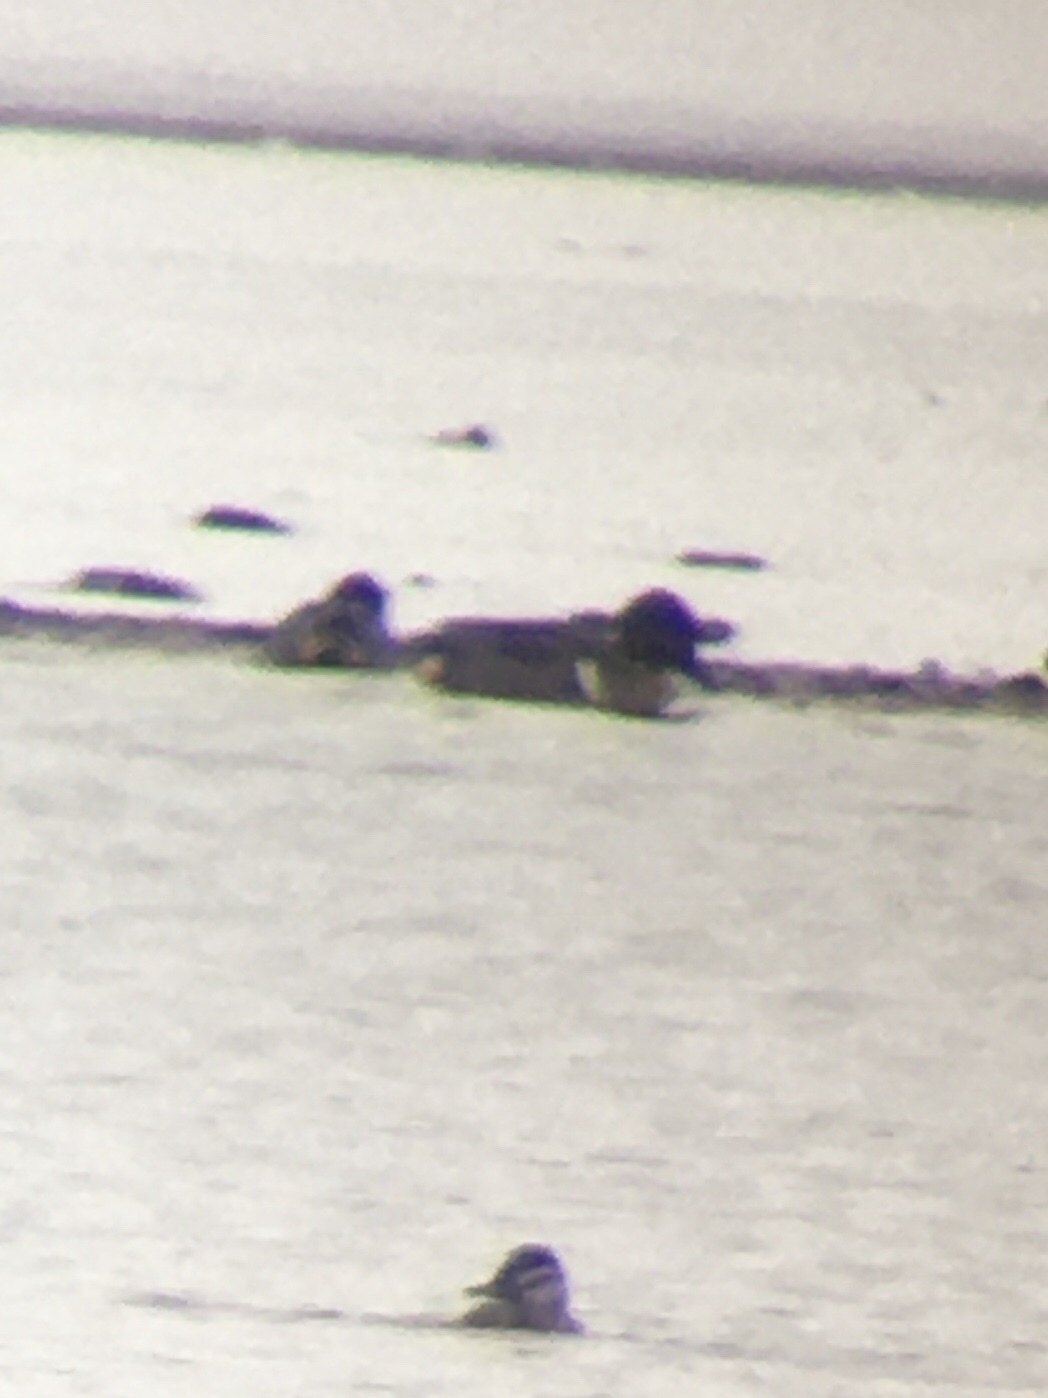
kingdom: Animalia
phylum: Chordata
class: Aves
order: Anseriformes
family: Anatidae
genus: Anas
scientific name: Anas crecca
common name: Eurasian teal
